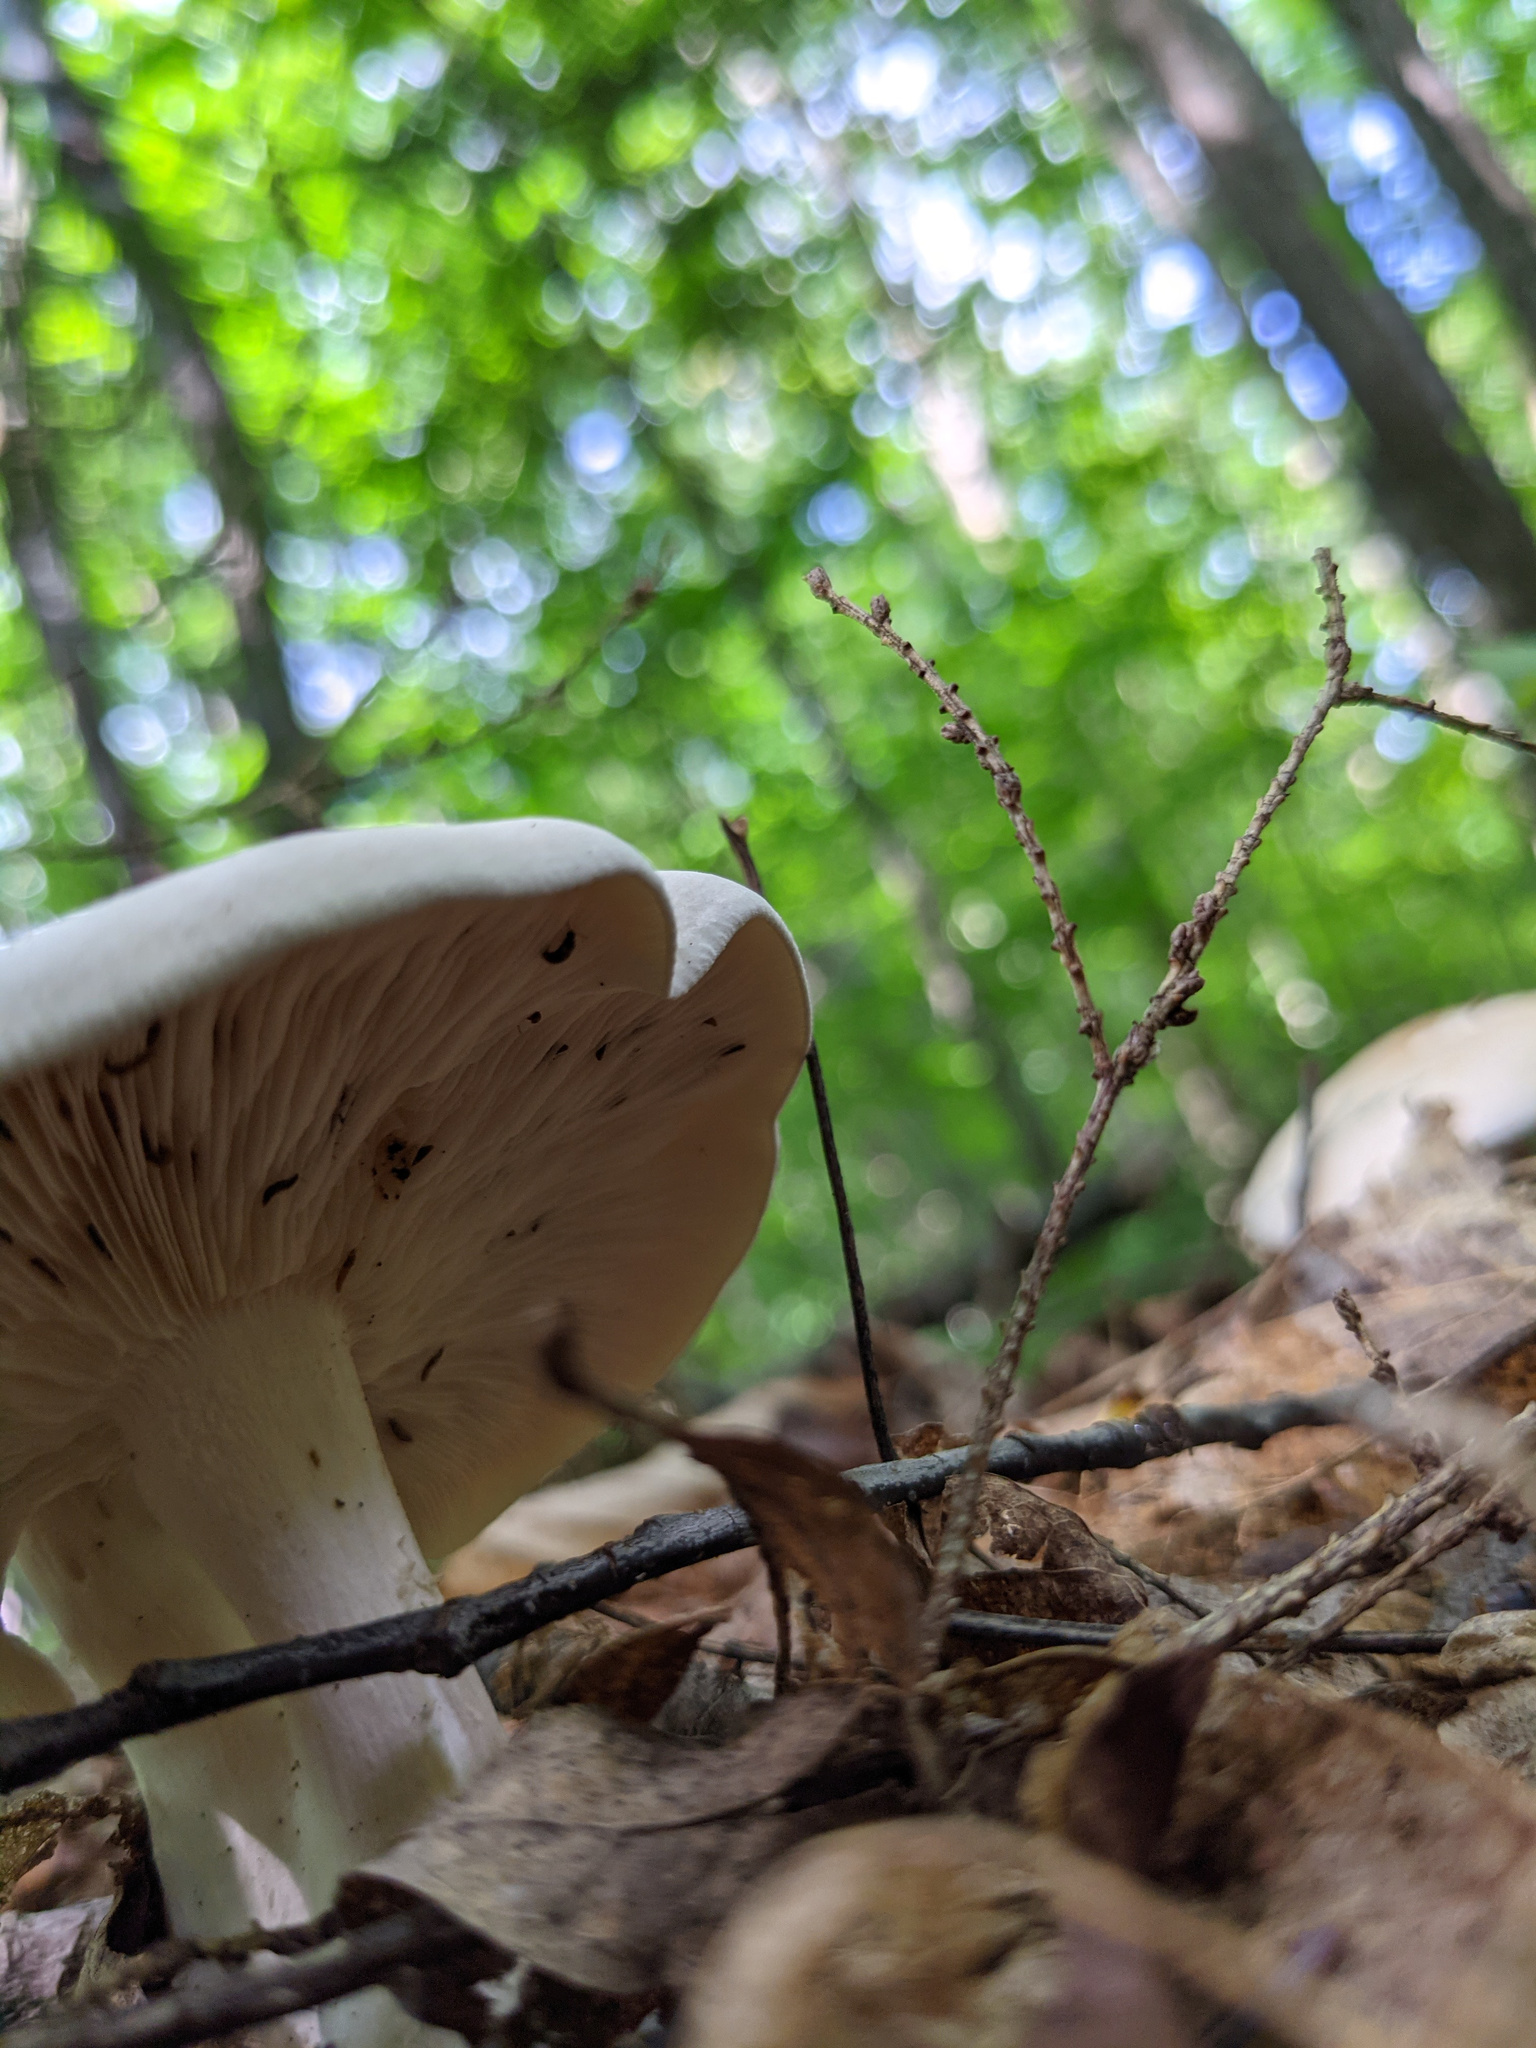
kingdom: Fungi
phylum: Basidiomycota
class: Agaricomycetes
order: Russulales
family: Russulaceae
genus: Lactifluus
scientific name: Lactifluus piperatus
